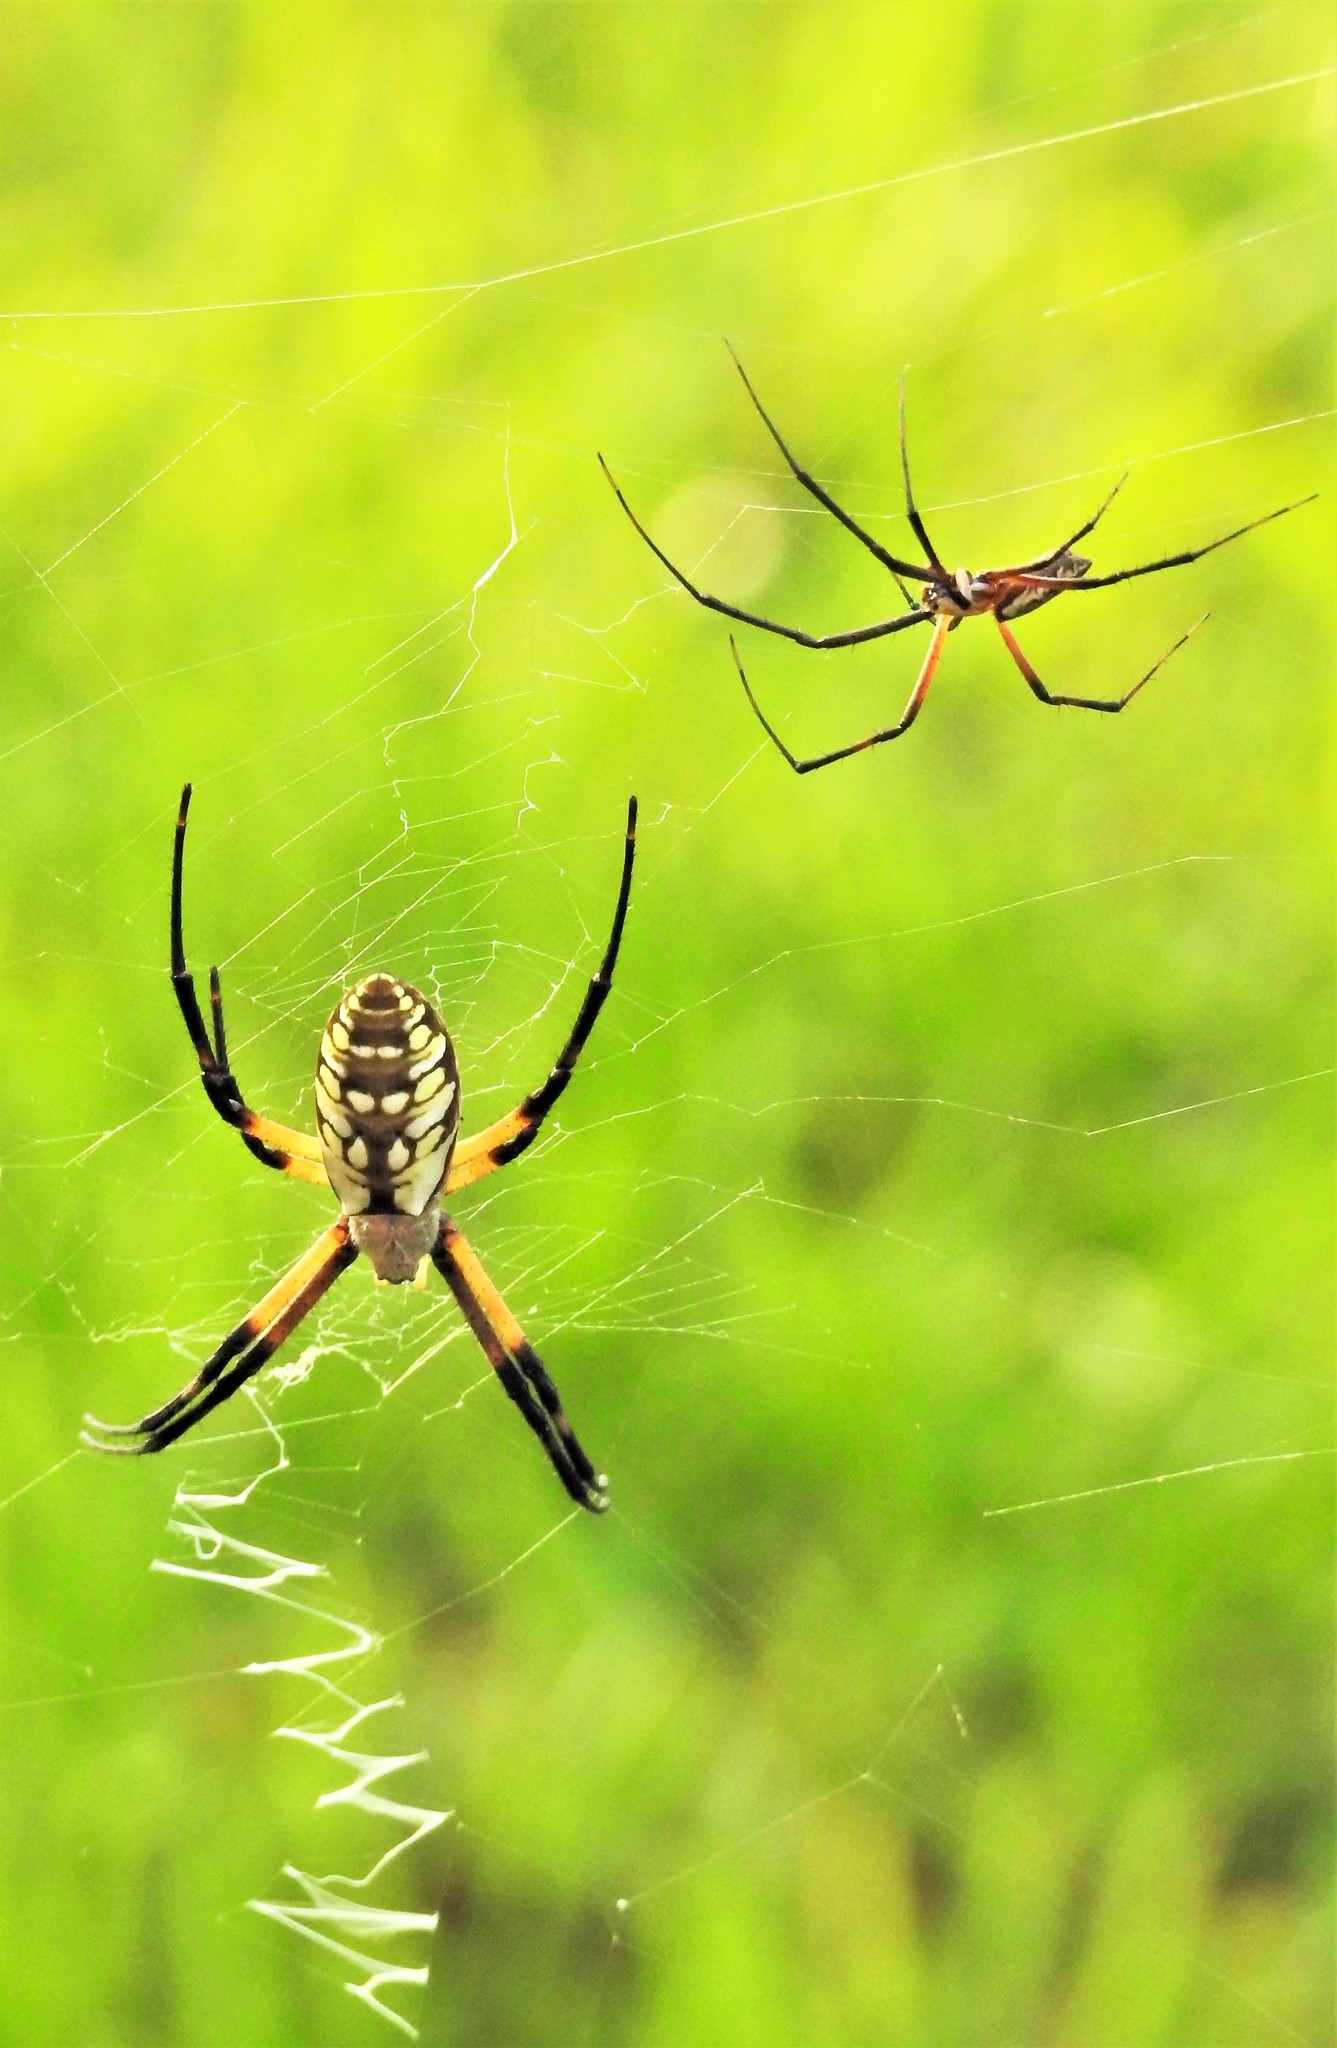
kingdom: Animalia
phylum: Arthropoda
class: Arachnida
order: Araneae
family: Araneidae
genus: Argiope
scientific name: Argiope aurantia
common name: Orb weavers
